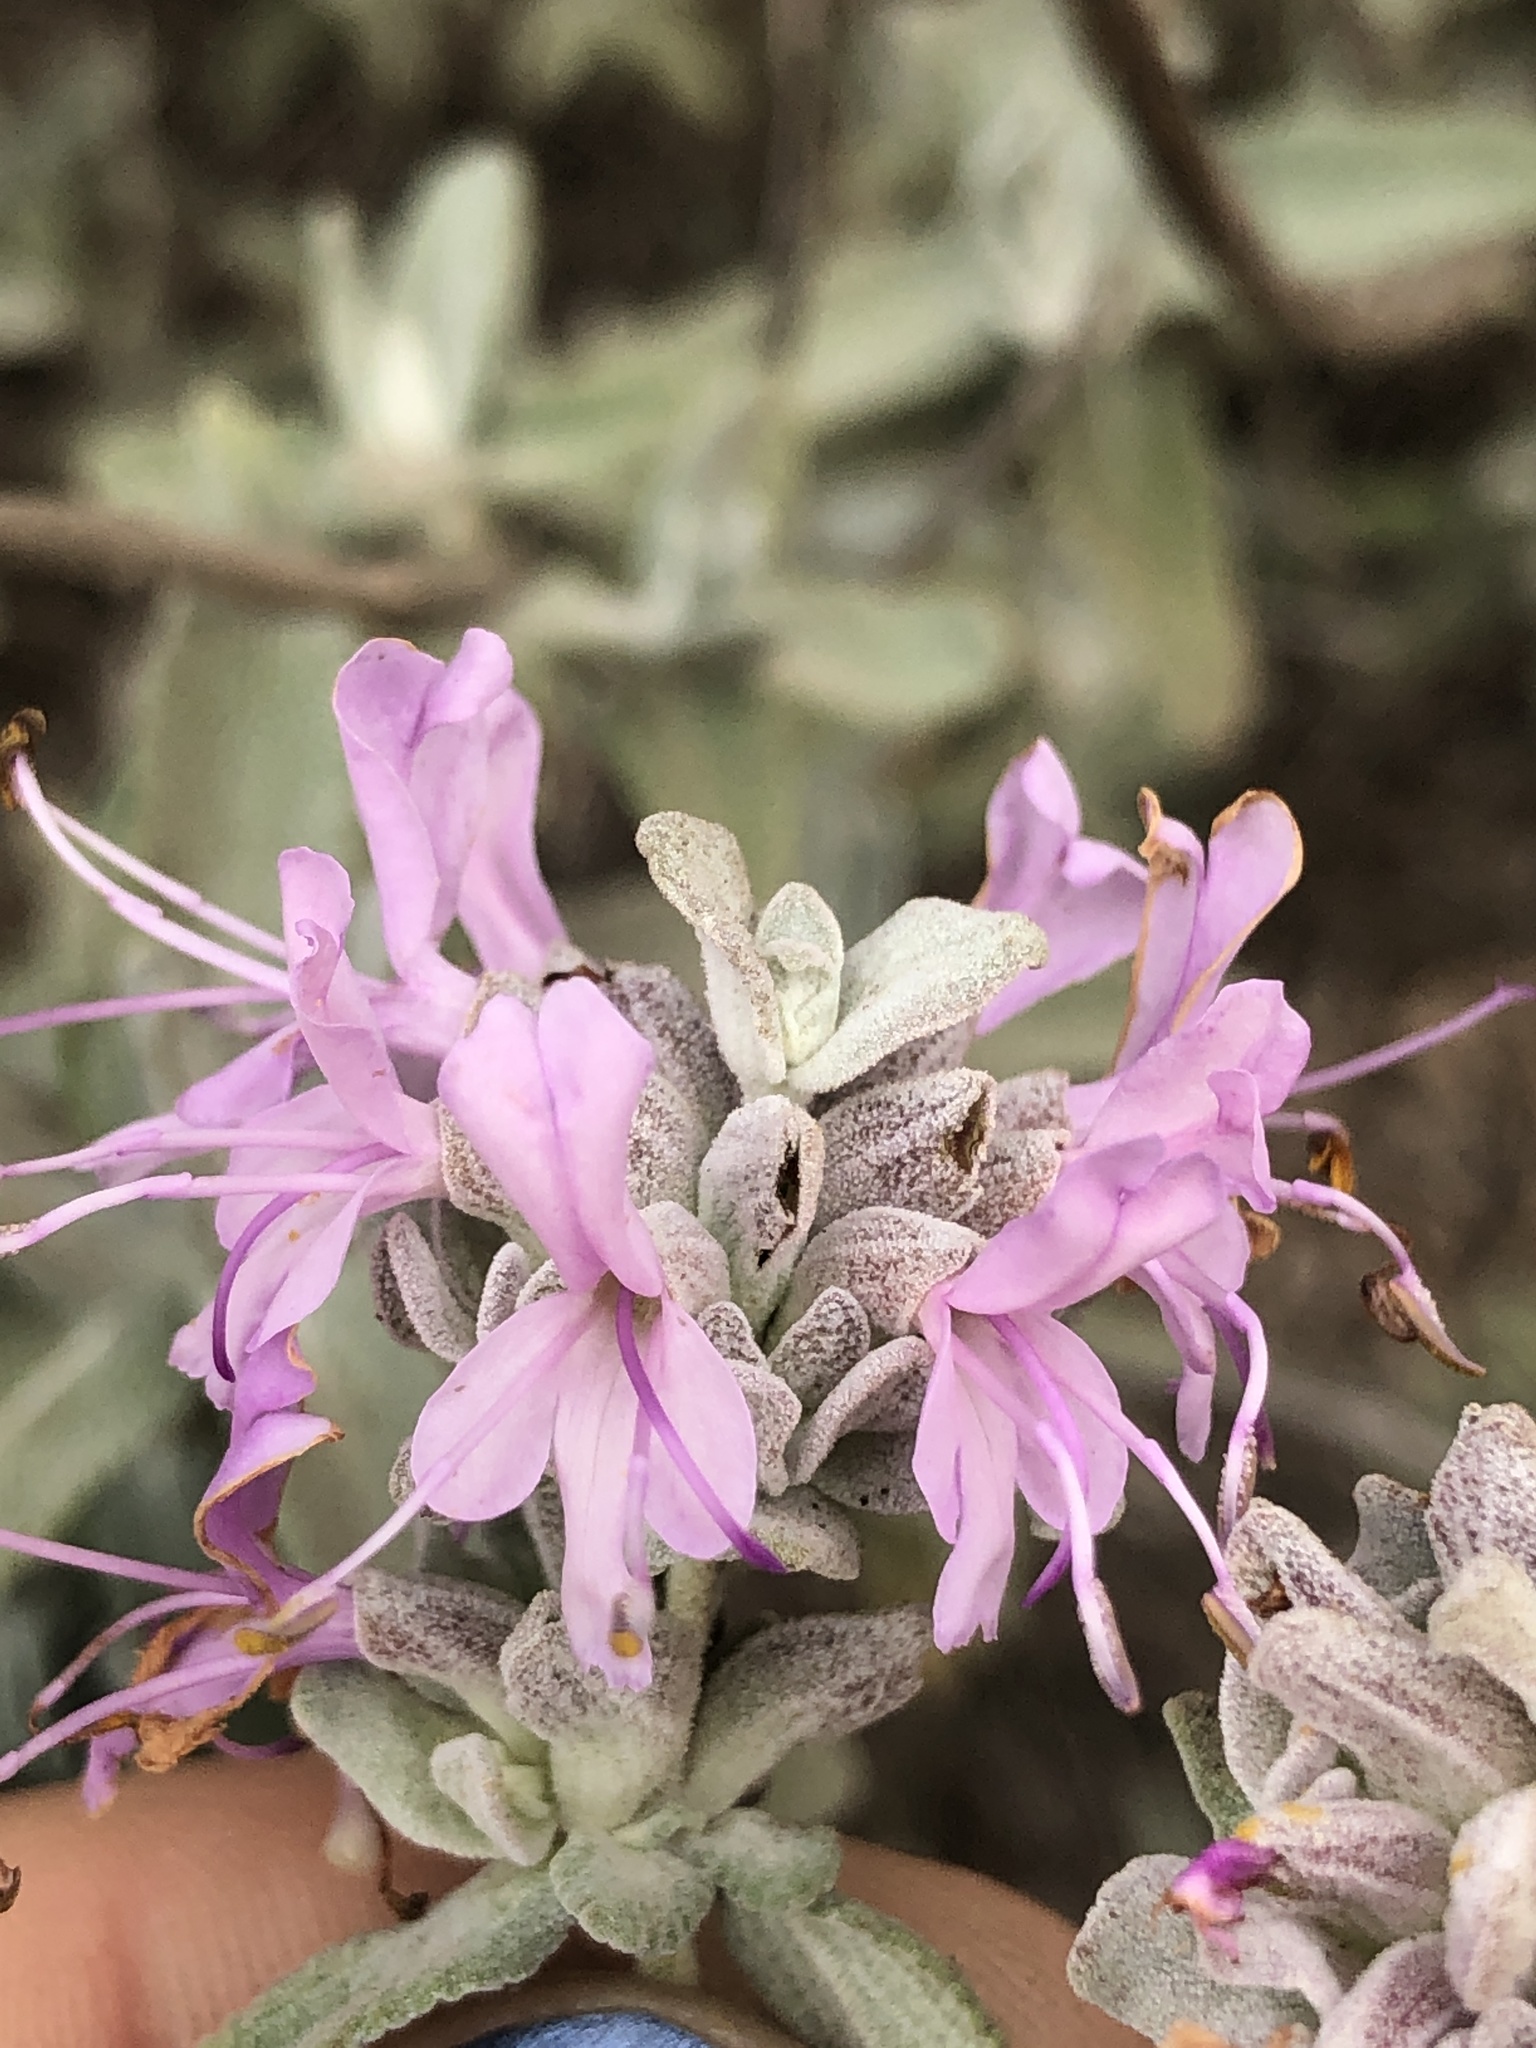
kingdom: Plantae
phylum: Tracheophyta
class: Magnoliopsida
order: Lamiales
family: Lamiaceae
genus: Salvia
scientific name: Salvia leucophylla
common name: Purple sage
